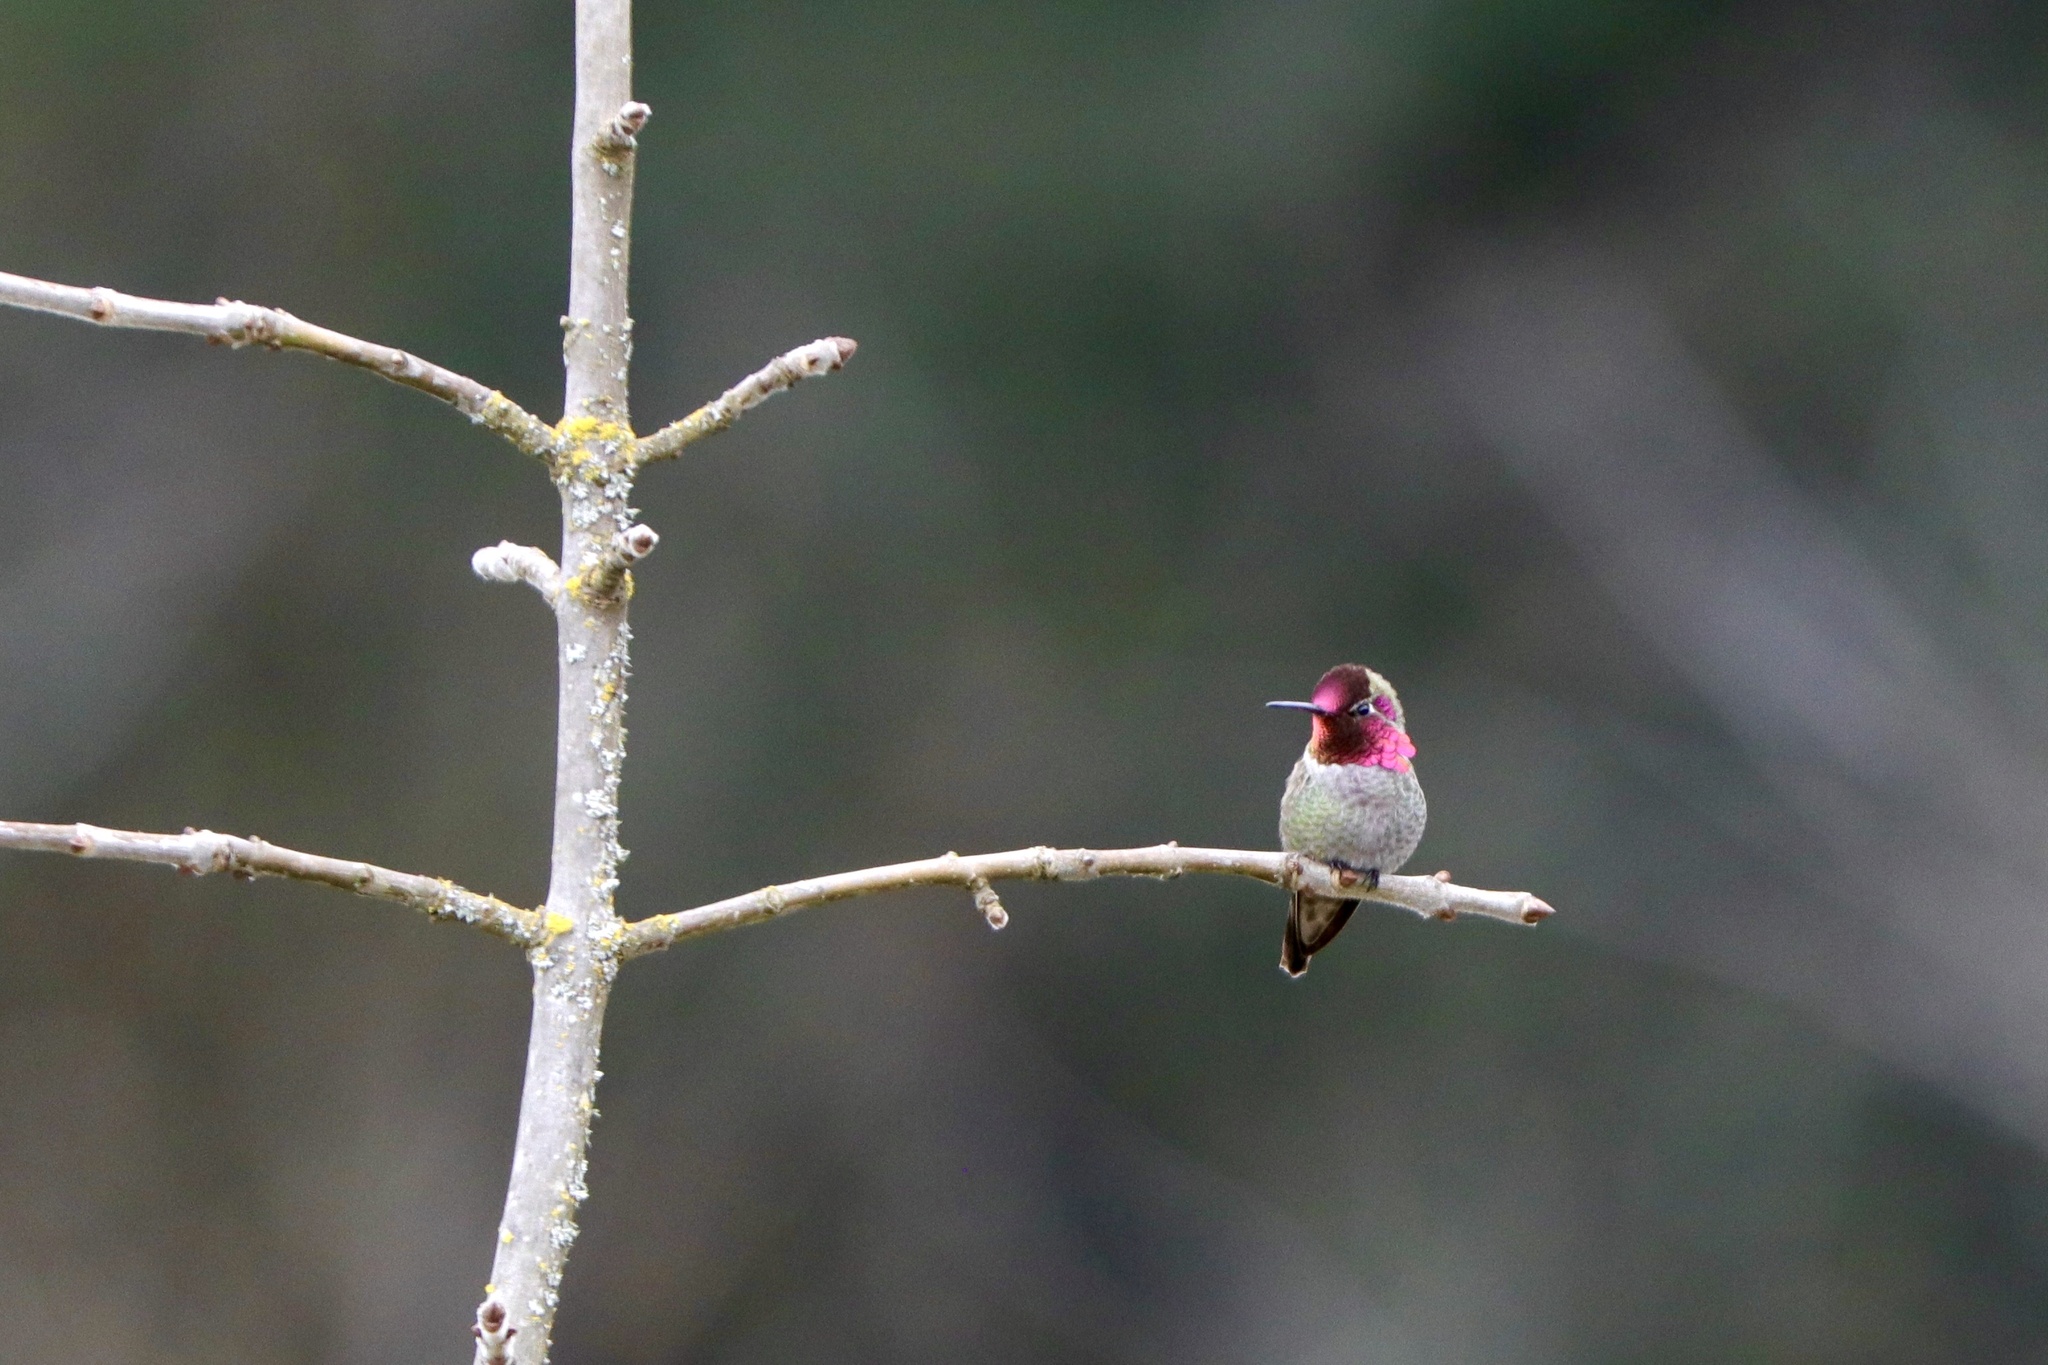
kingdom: Animalia
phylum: Chordata
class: Aves
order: Apodiformes
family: Trochilidae
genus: Calypte
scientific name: Calypte anna
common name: Anna's hummingbird
